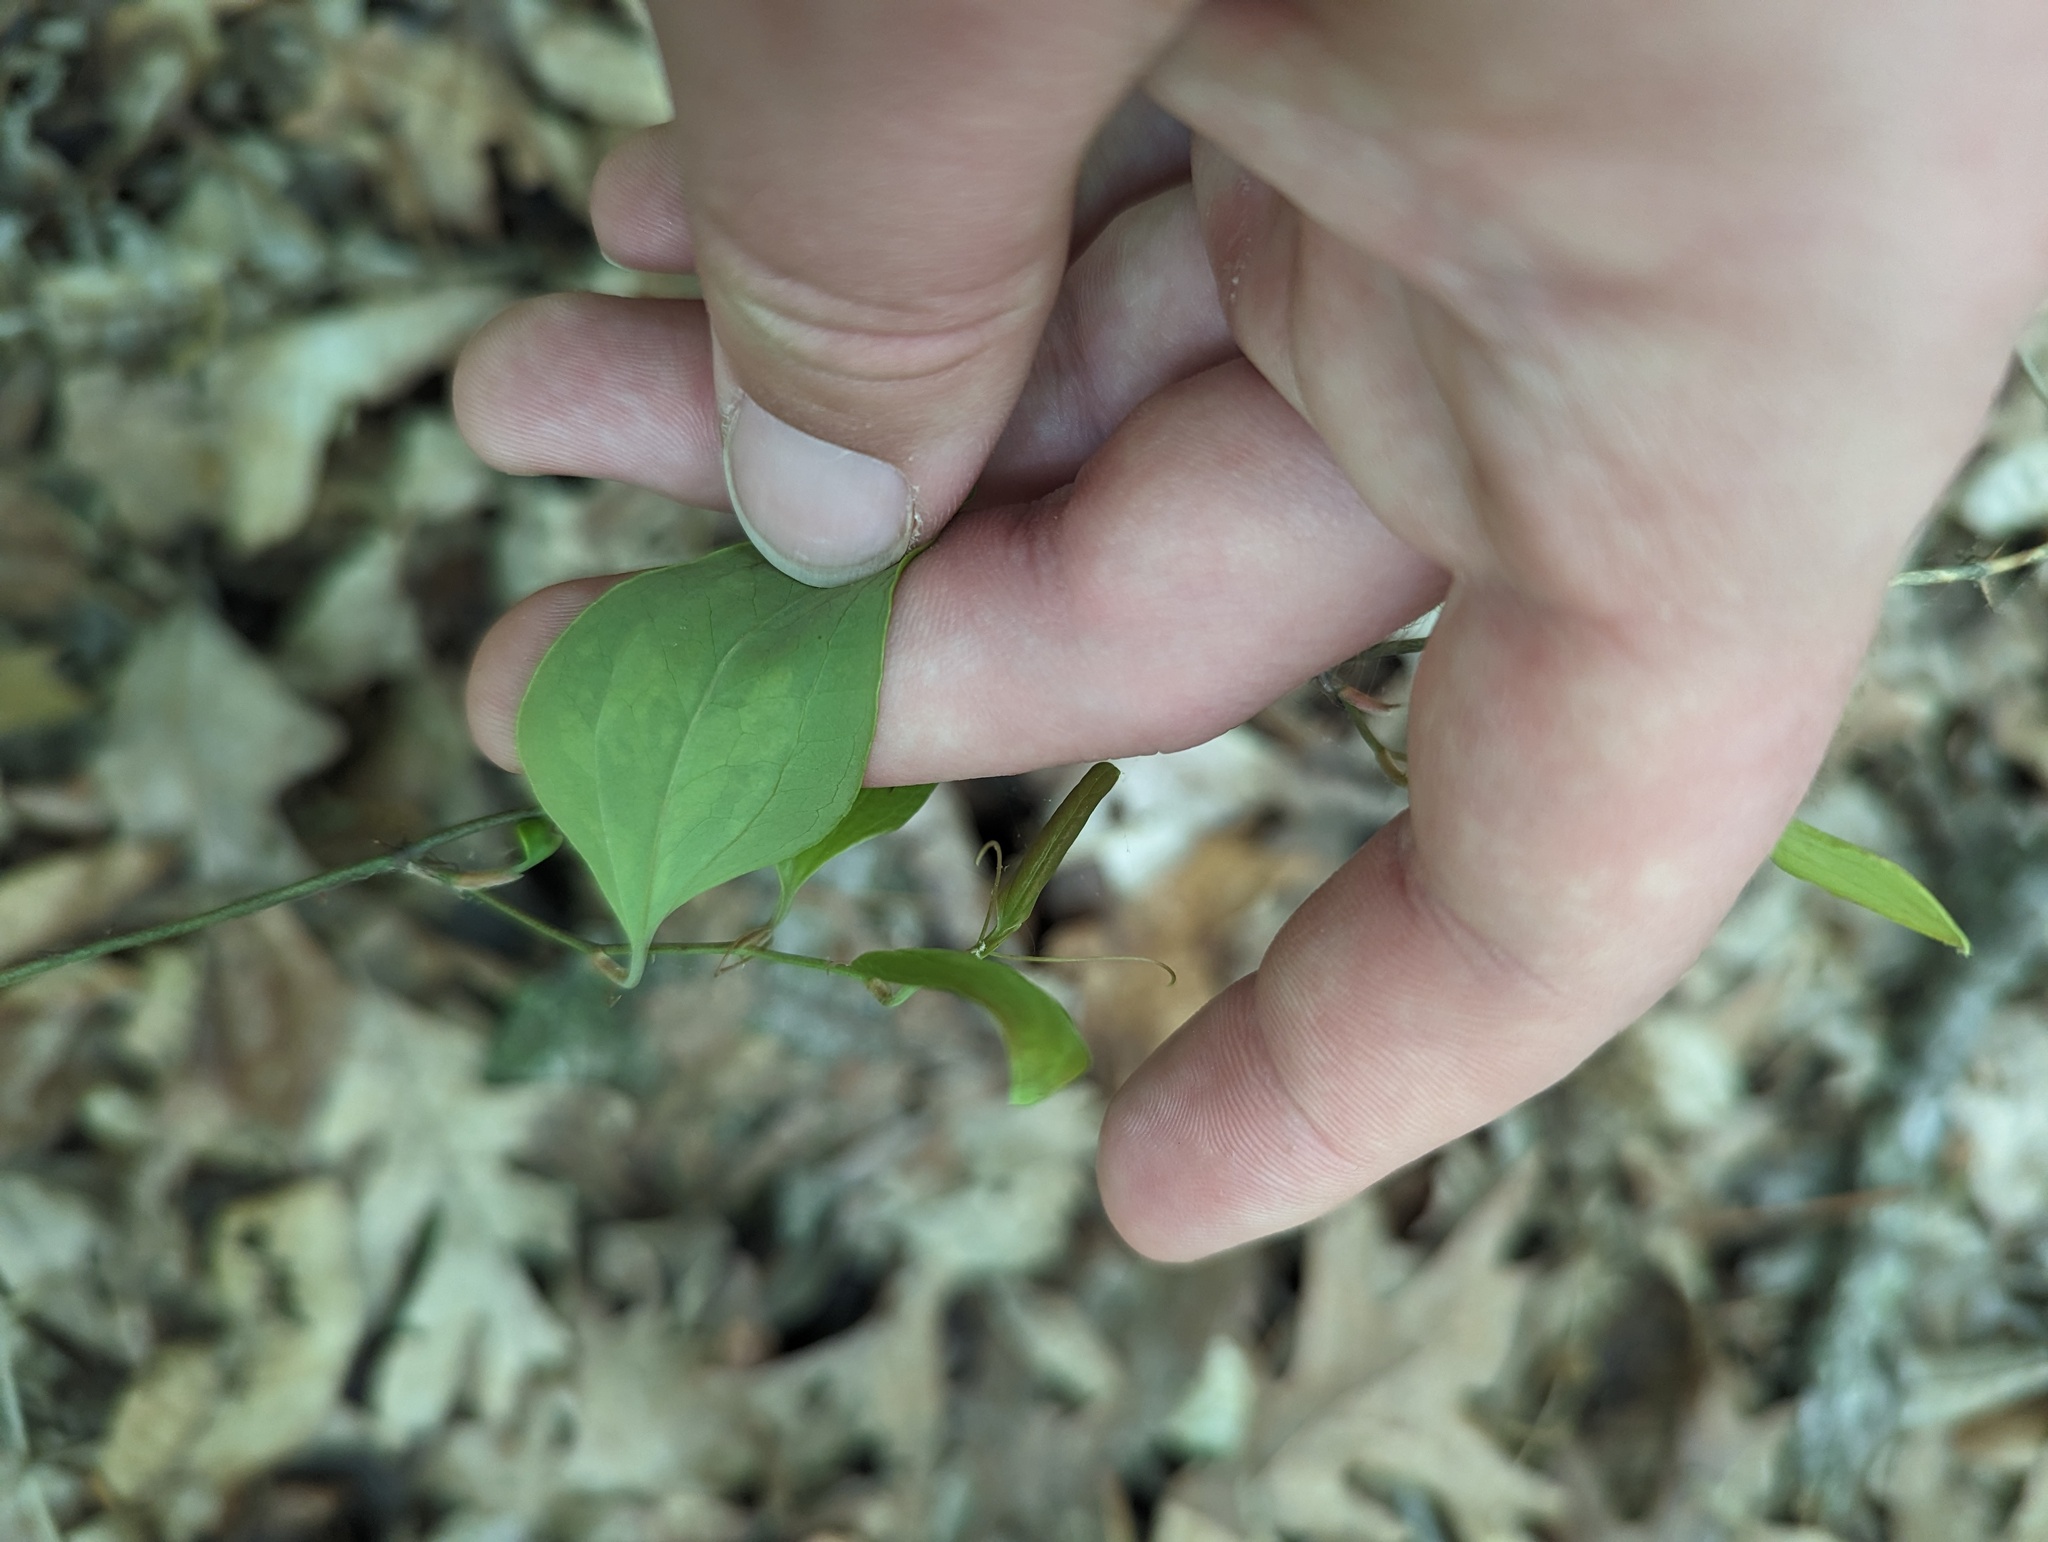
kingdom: Plantae
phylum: Tracheophyta
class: Liliopsida
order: Liliales
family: Smilacaceae
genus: Smilax
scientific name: Smilax glauca
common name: Cat greenbrier
